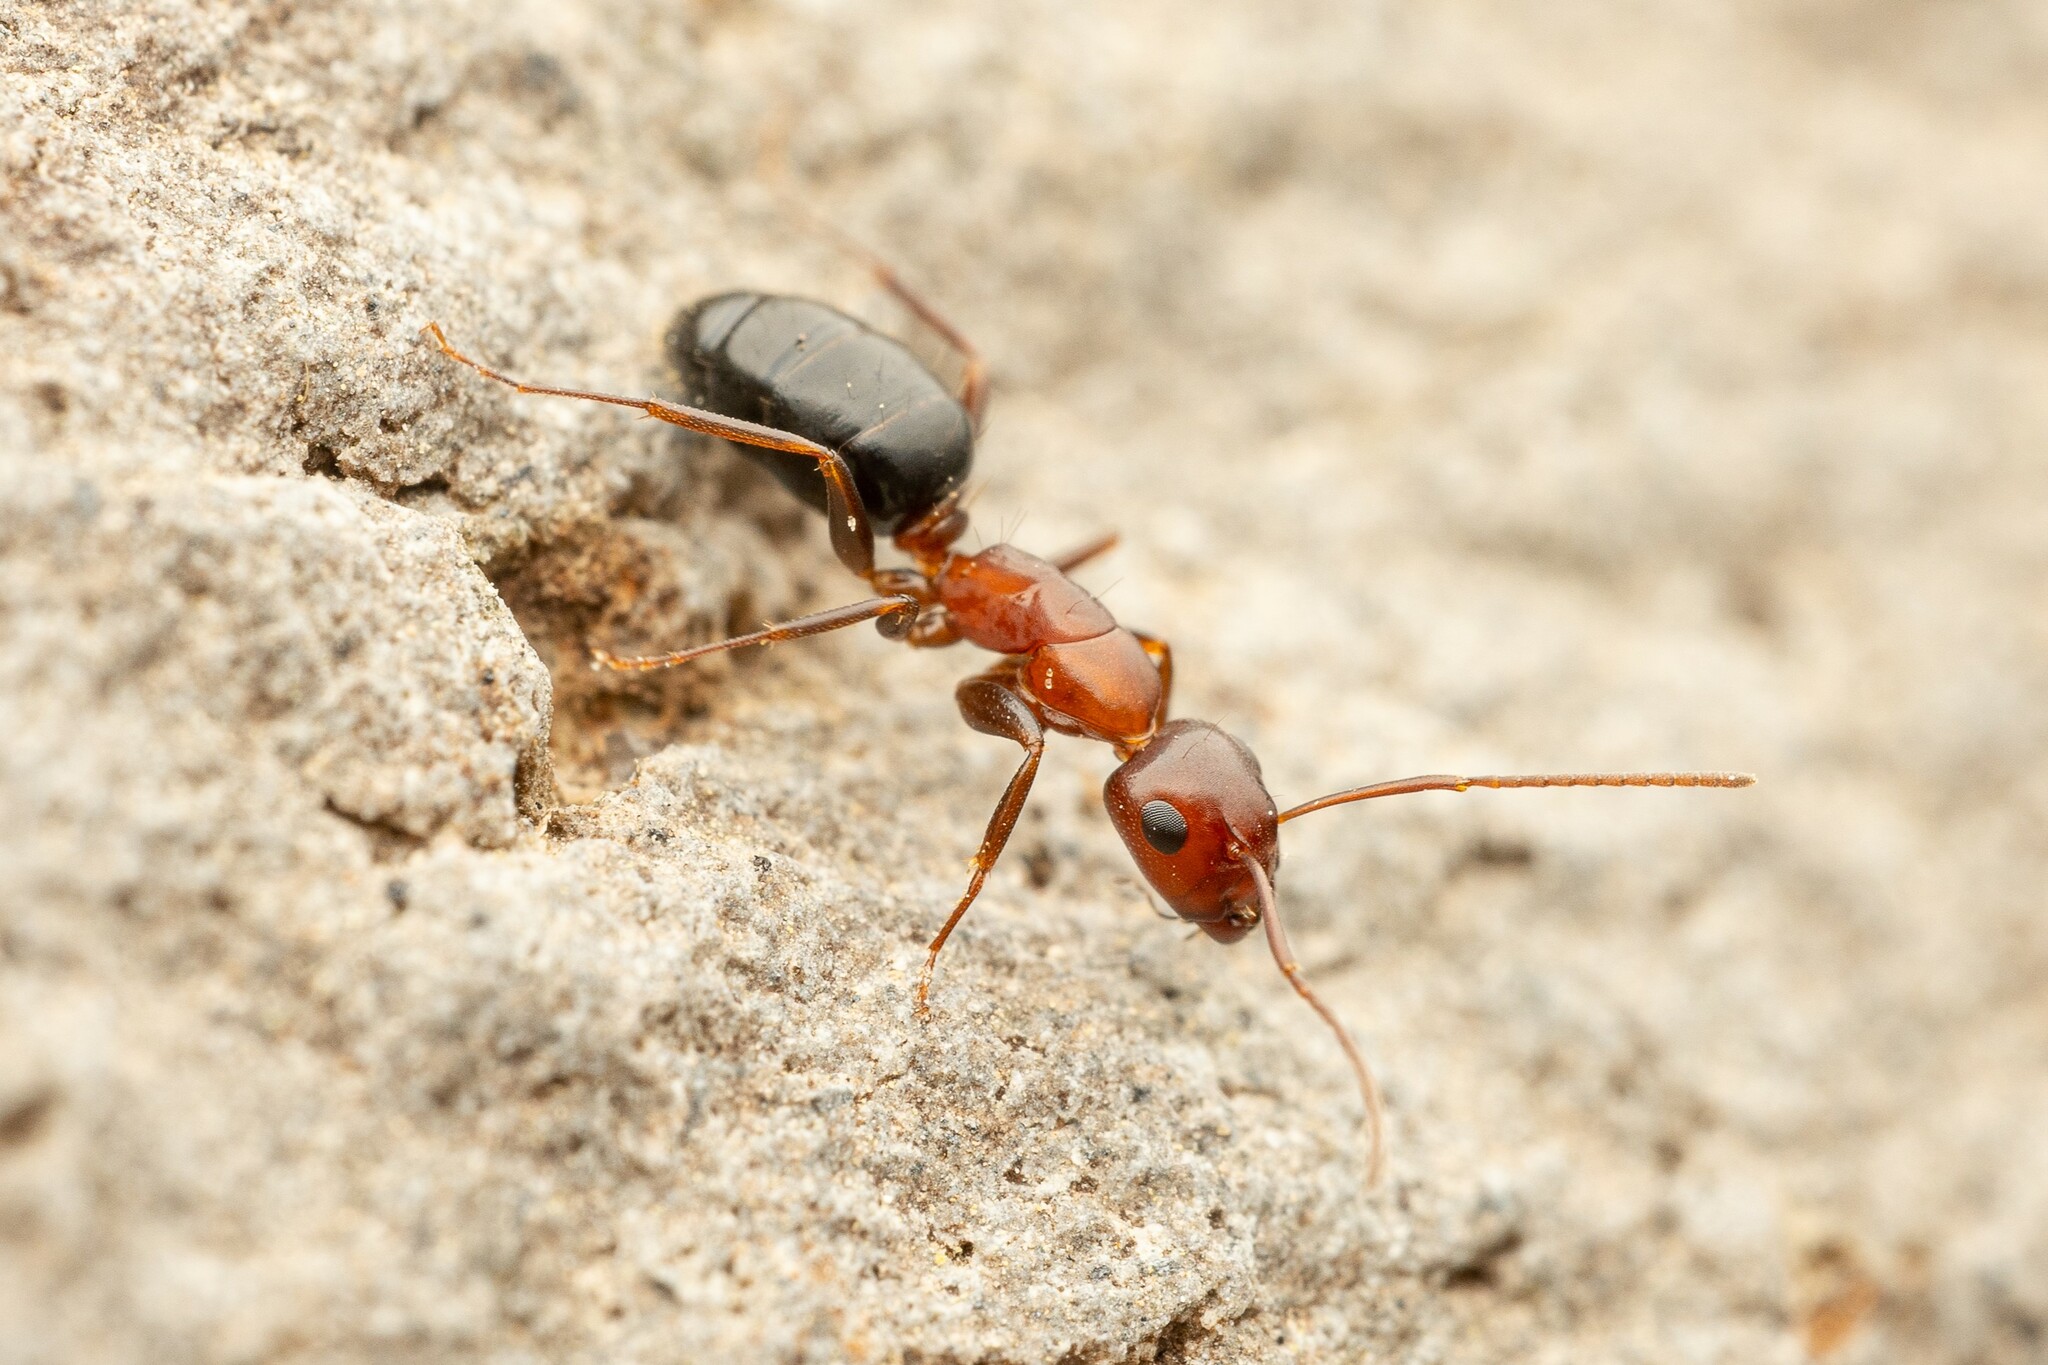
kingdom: Animalia
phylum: Arthropoda
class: Insecta
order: Hymenoptera
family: Formicidae
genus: Camponotus
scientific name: Camponotus sayi
